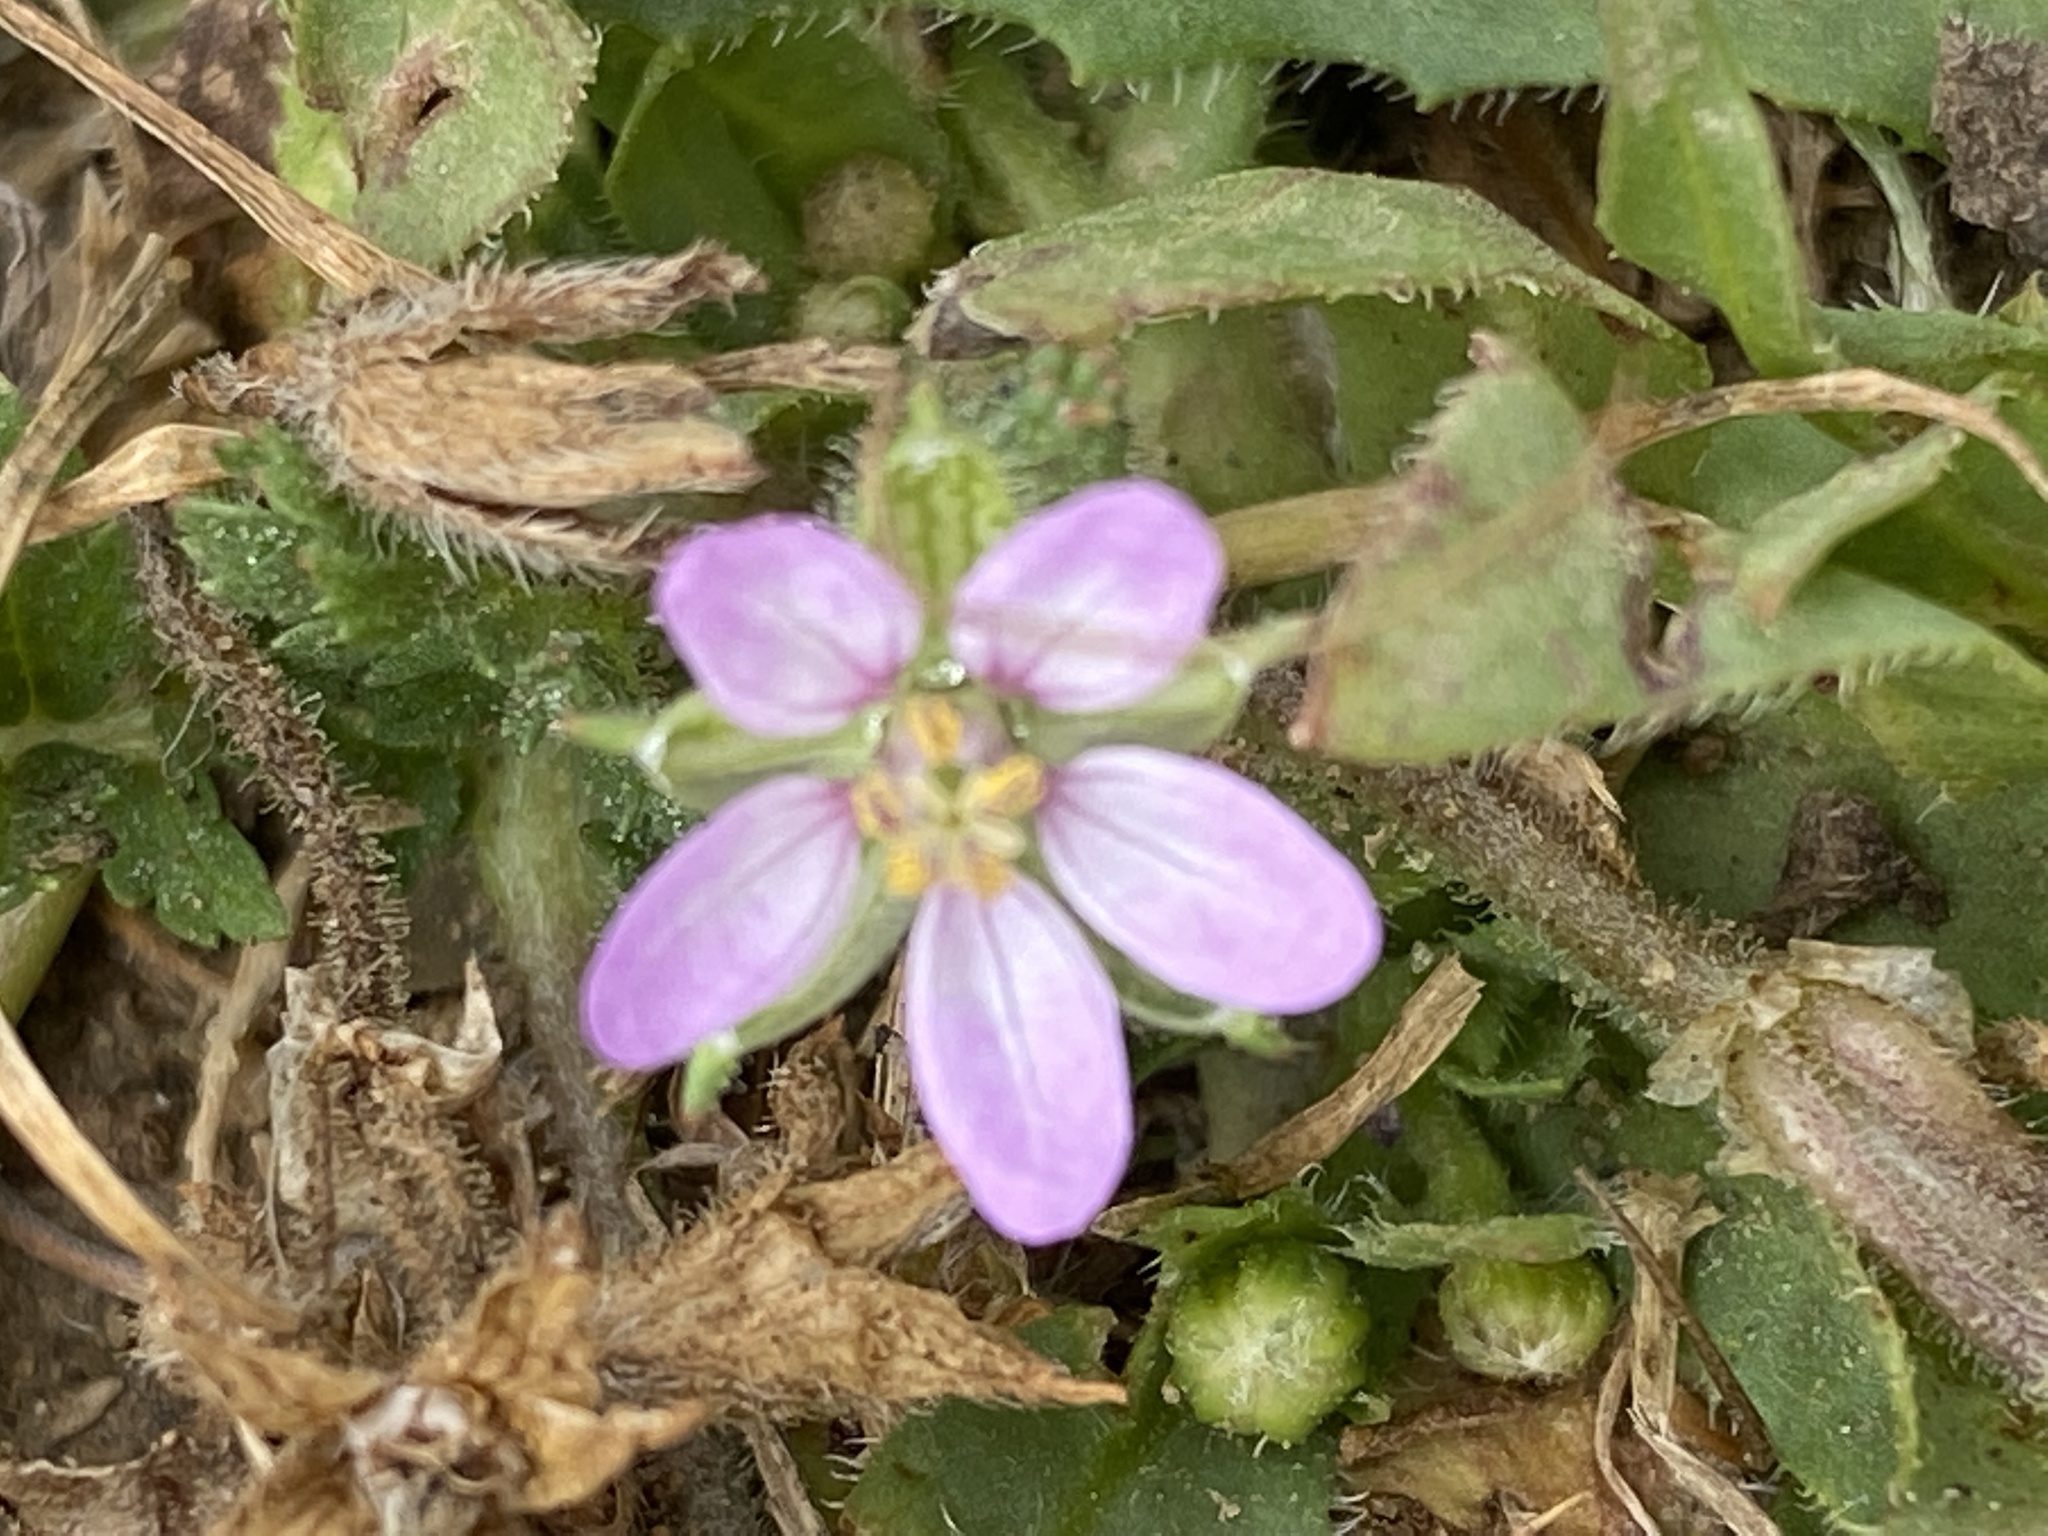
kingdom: Plantae
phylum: Tracheophyta
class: Magnoliopsida
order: Geraniales
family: Geraniaceae
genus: Erodium
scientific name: Erodium moschatum
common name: Musk stork's-bill
